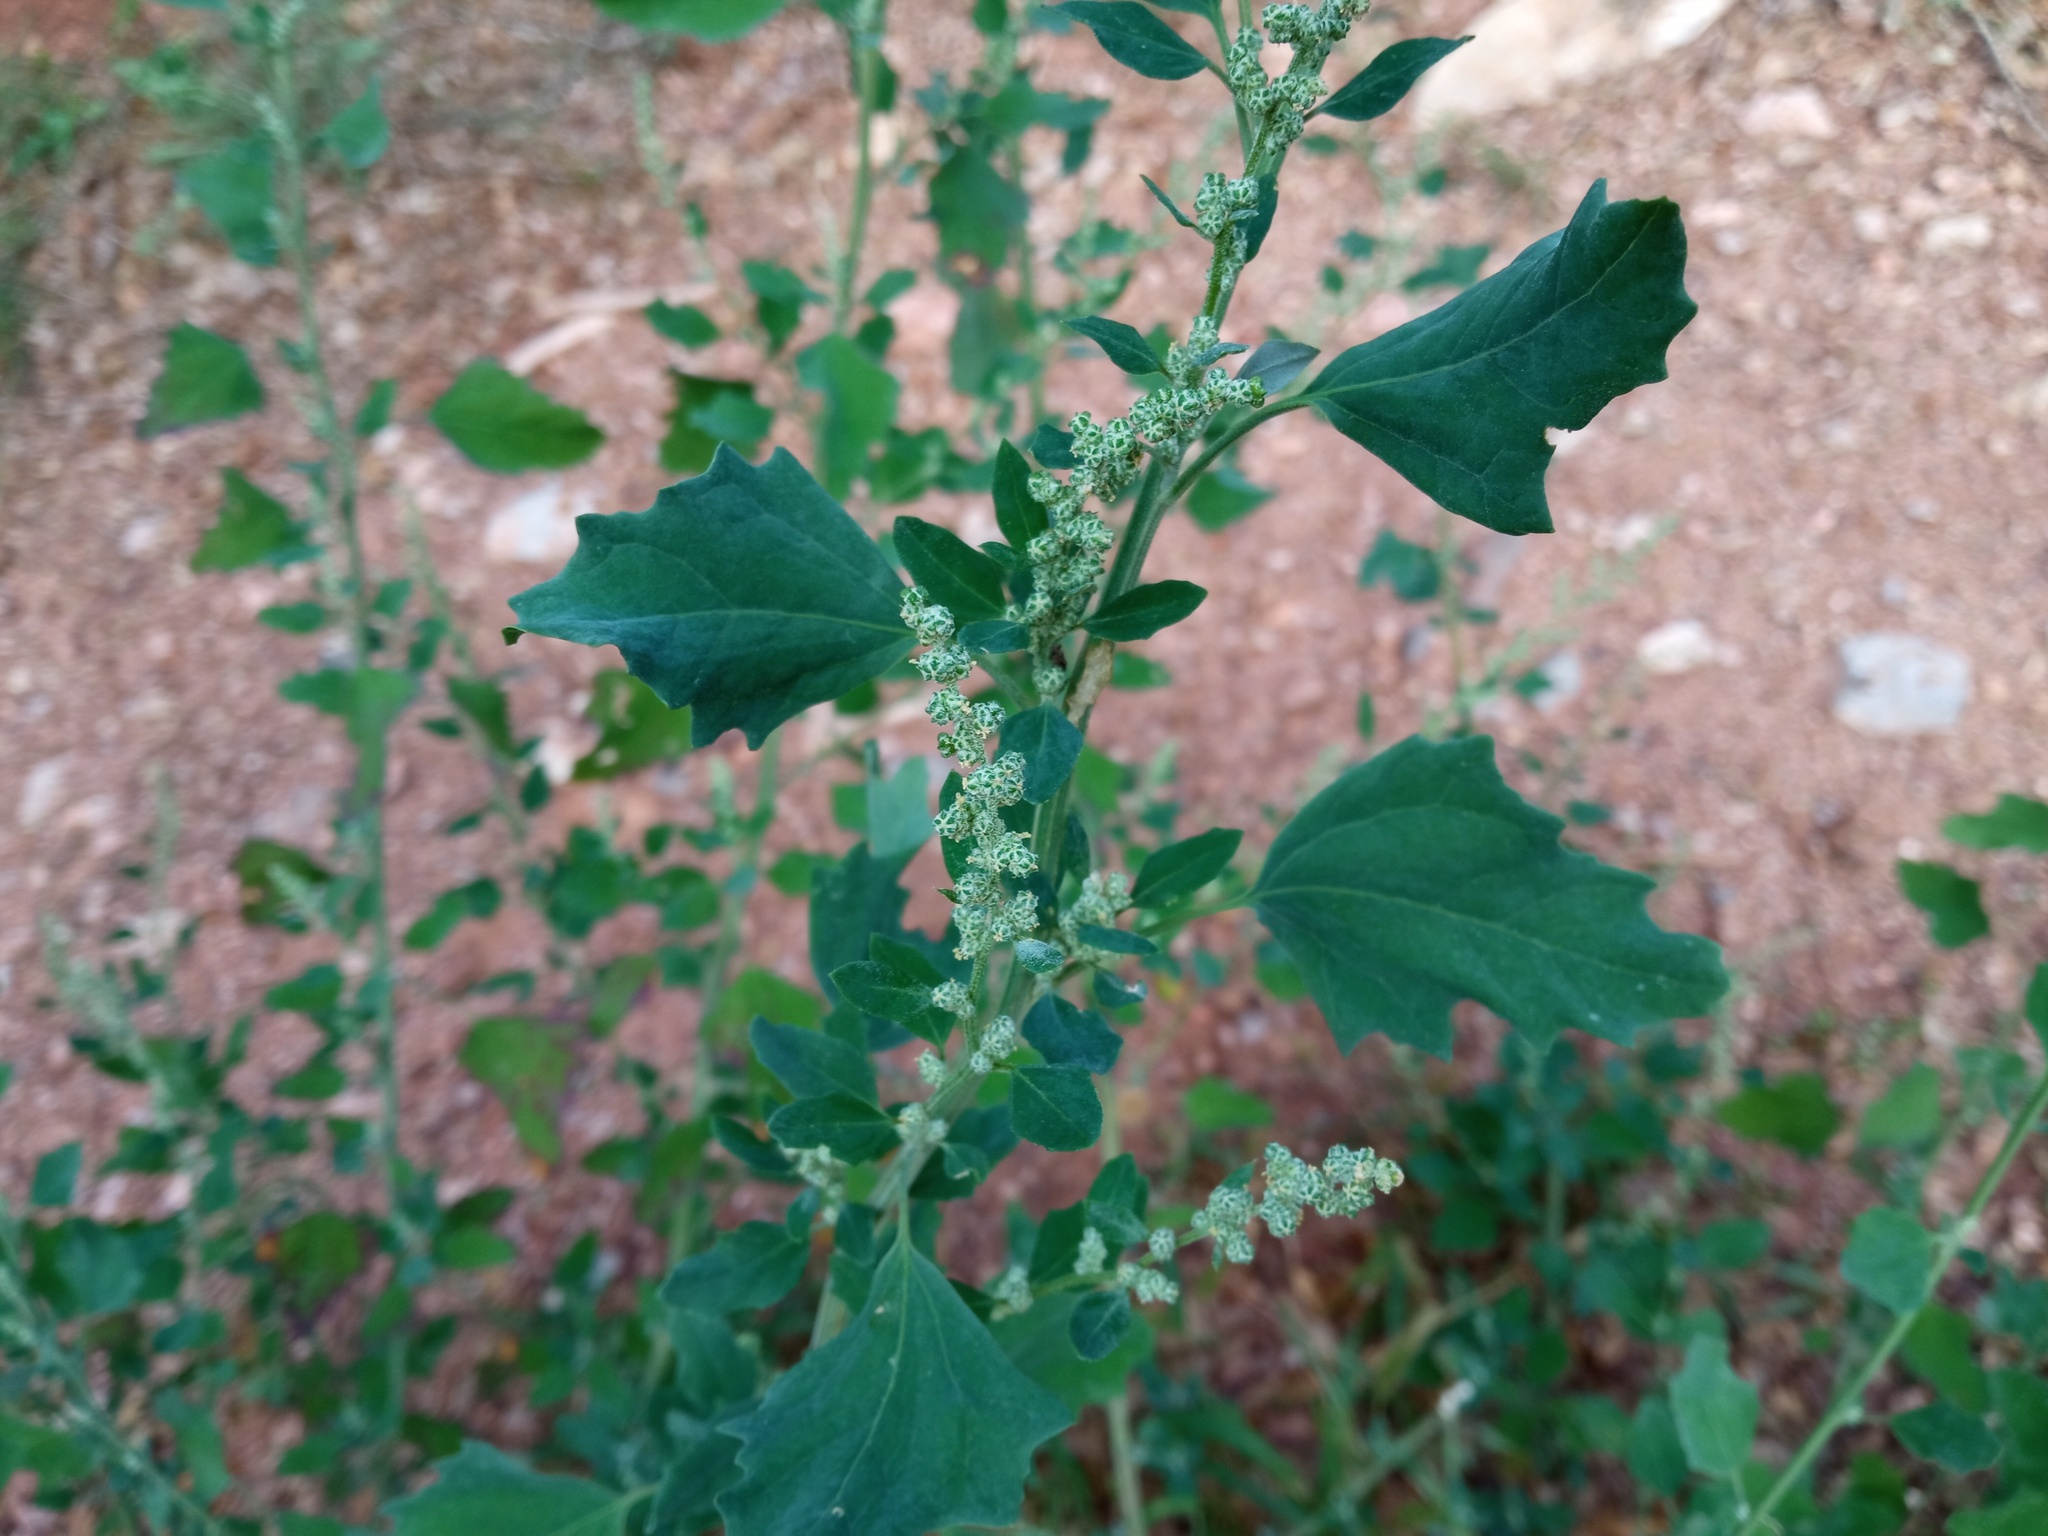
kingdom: Plantae
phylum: Tracheophyta
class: Magnoliopsida
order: Caryophyllales
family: Amaranthaceae
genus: Chenopodium
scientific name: Chenopodium album
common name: Fat-hen
